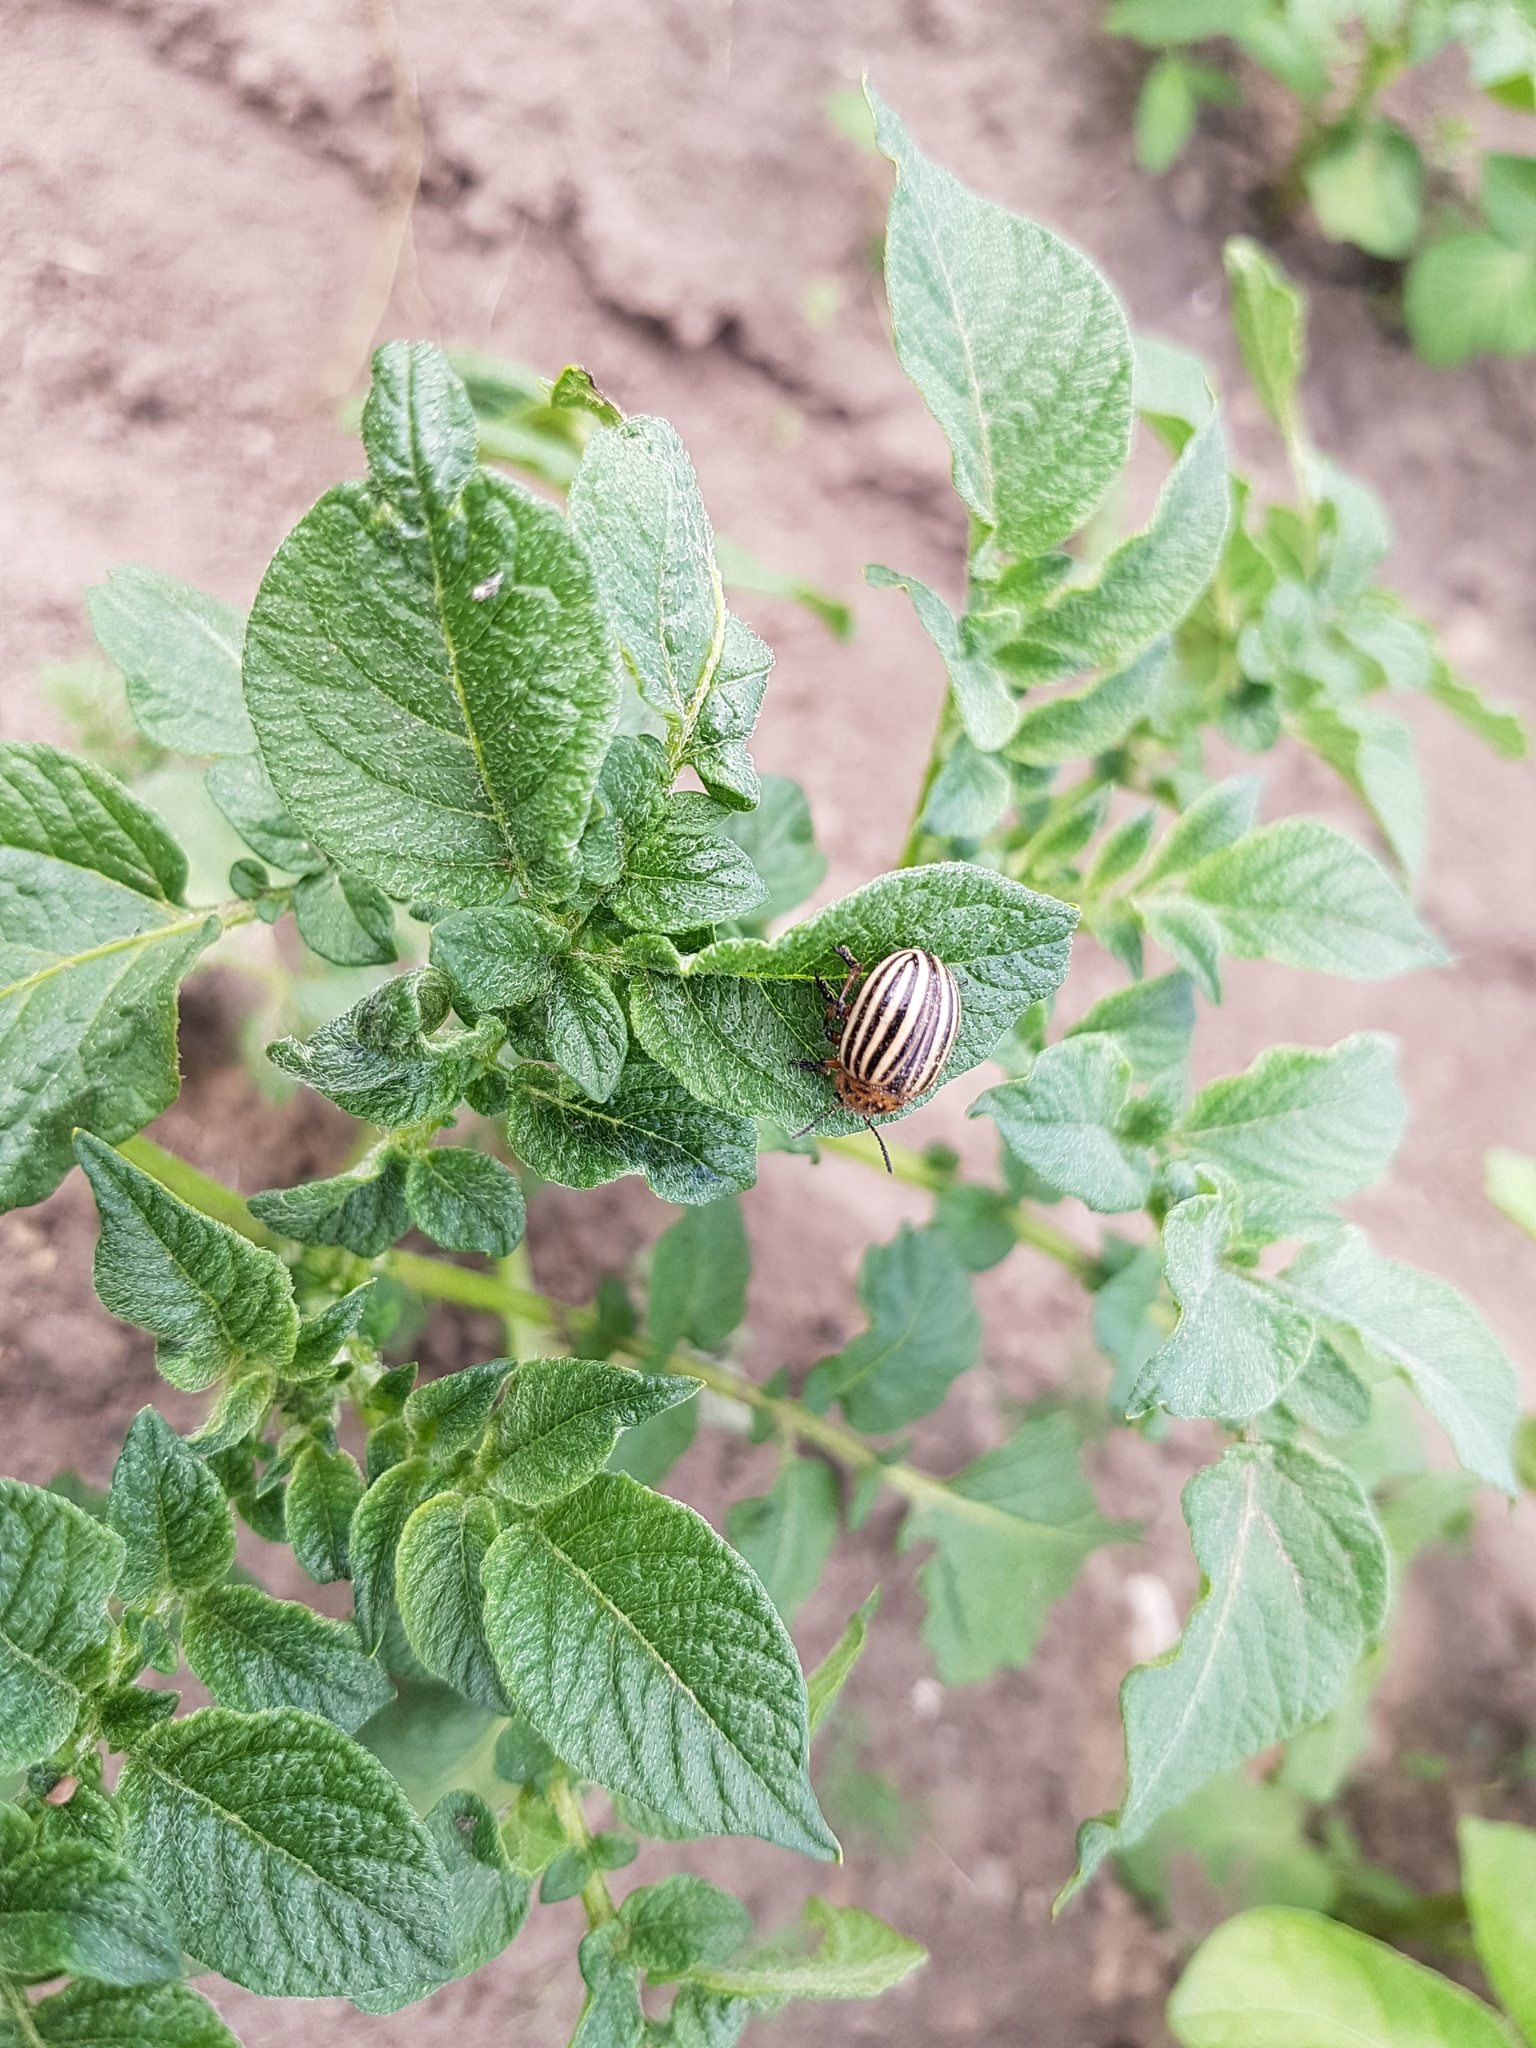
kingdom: Animalia
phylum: Arthropoda
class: Insecta
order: Coleoptera
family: Chrysomelidae
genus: Leptinotarsa
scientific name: Leptinotarsa decemlineata
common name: Colorado potato beetle
